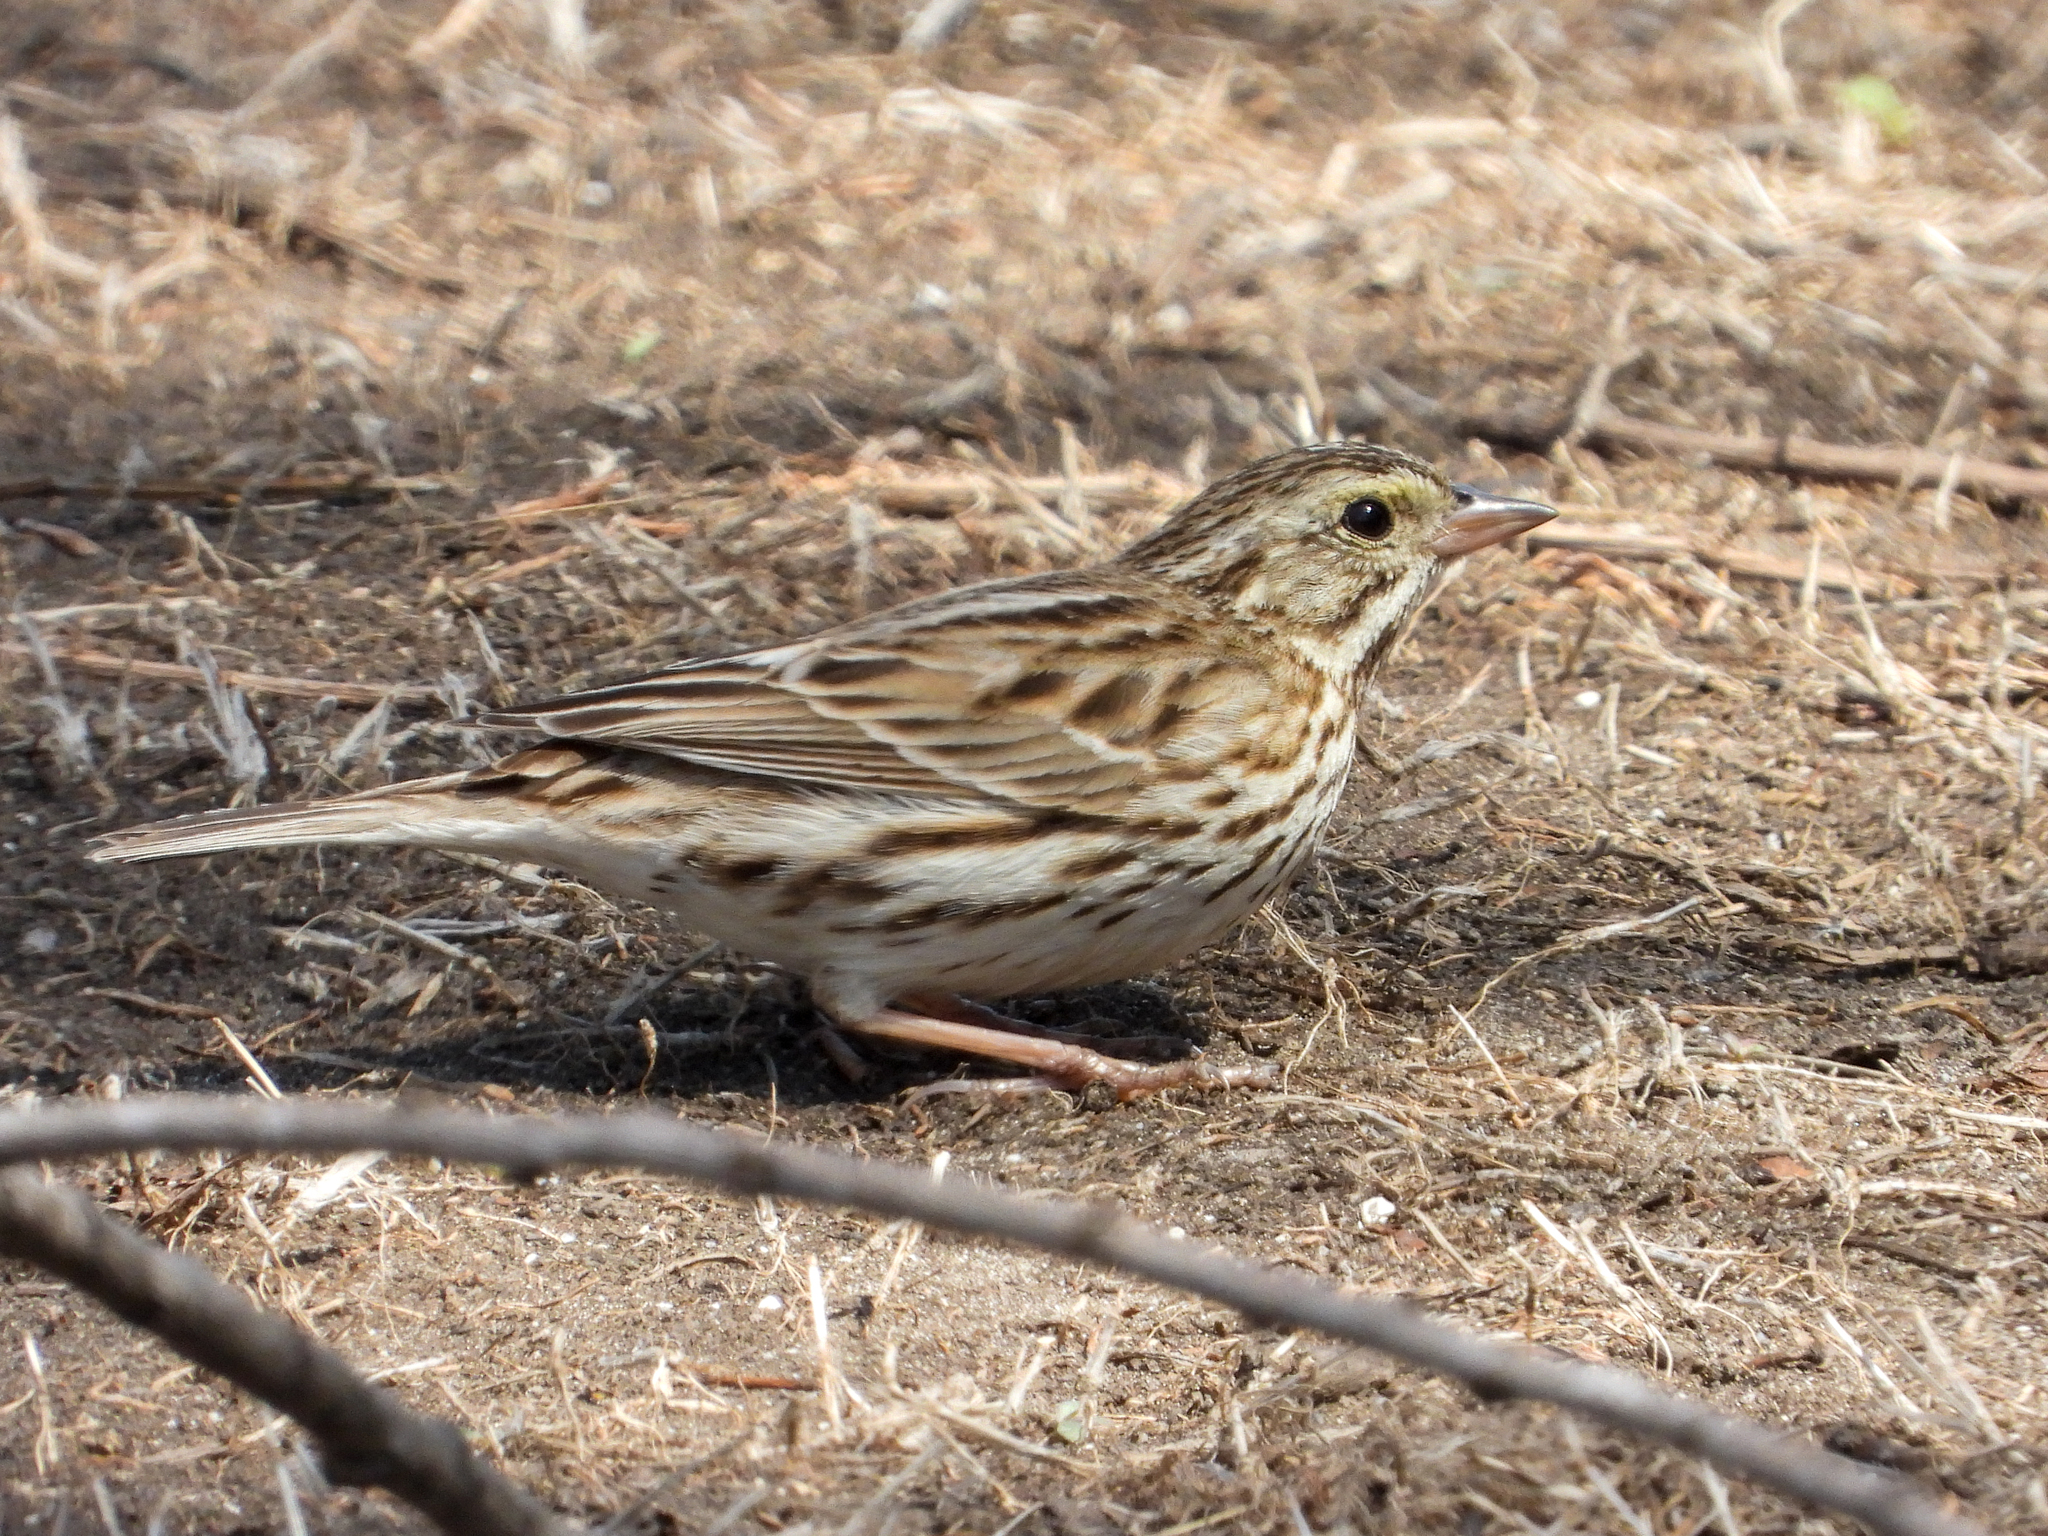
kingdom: Animalia
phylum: Chordata
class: Aves
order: Passeriformes
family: Passerellidae
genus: Passerculus
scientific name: Passerculus sandwichensis
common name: Savannah sparrow
